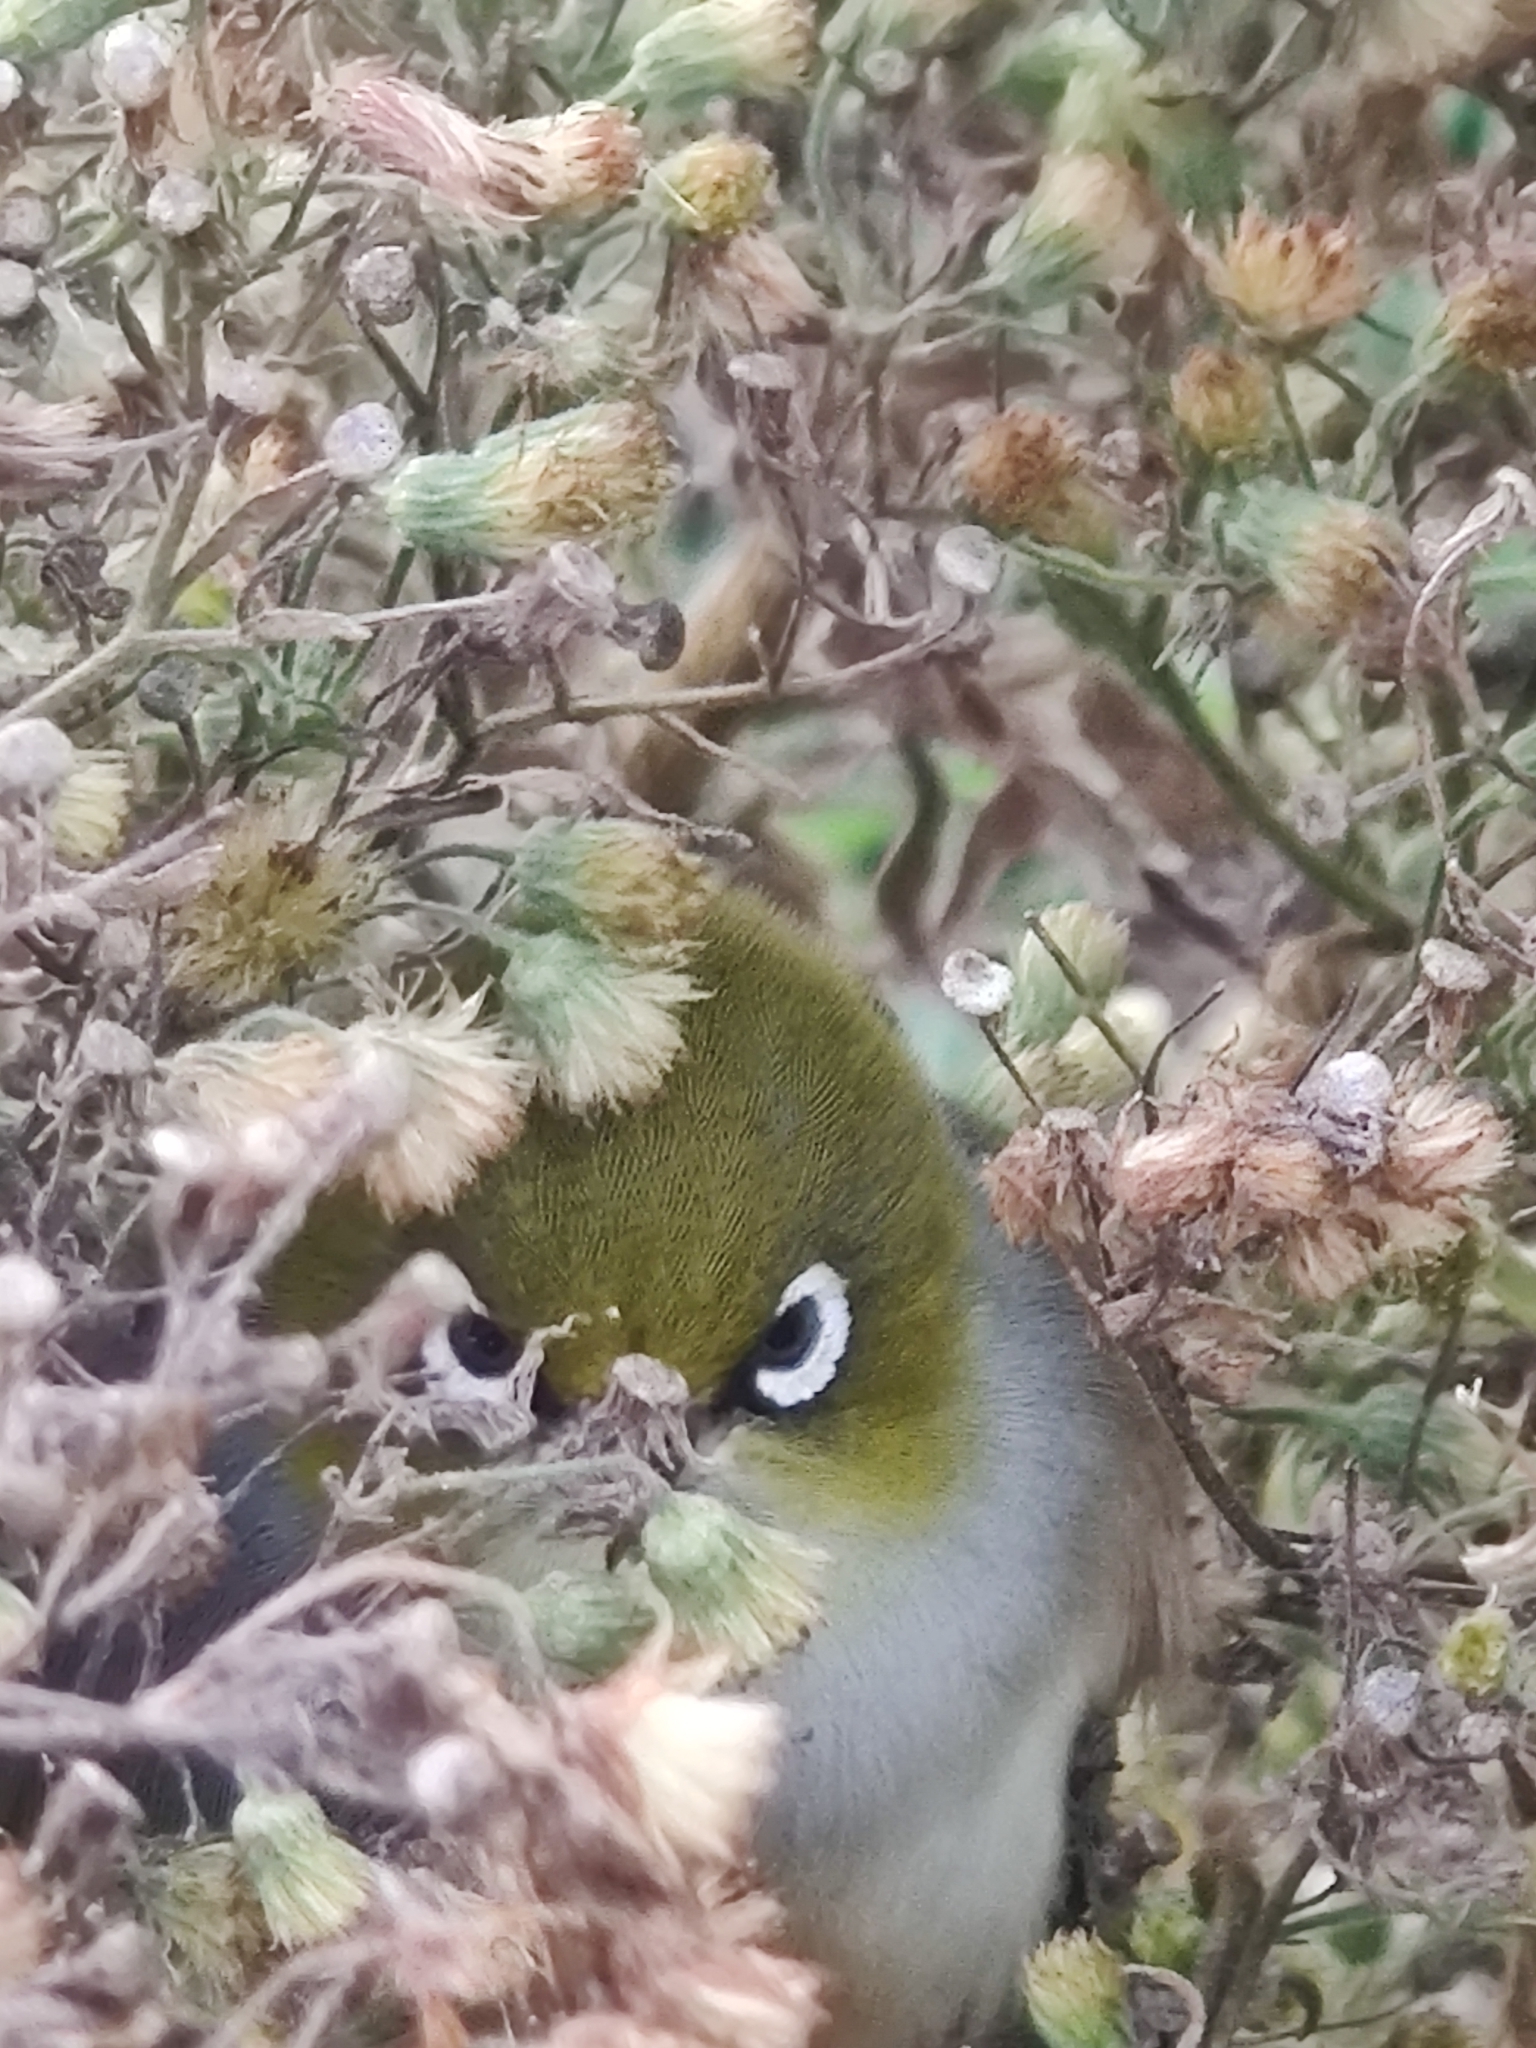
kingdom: Animalia
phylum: Chordata
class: Aves
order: Passeriformes
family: Zosteropidae
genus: Zosterops
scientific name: Zosterops lateralis
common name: Silvereye
